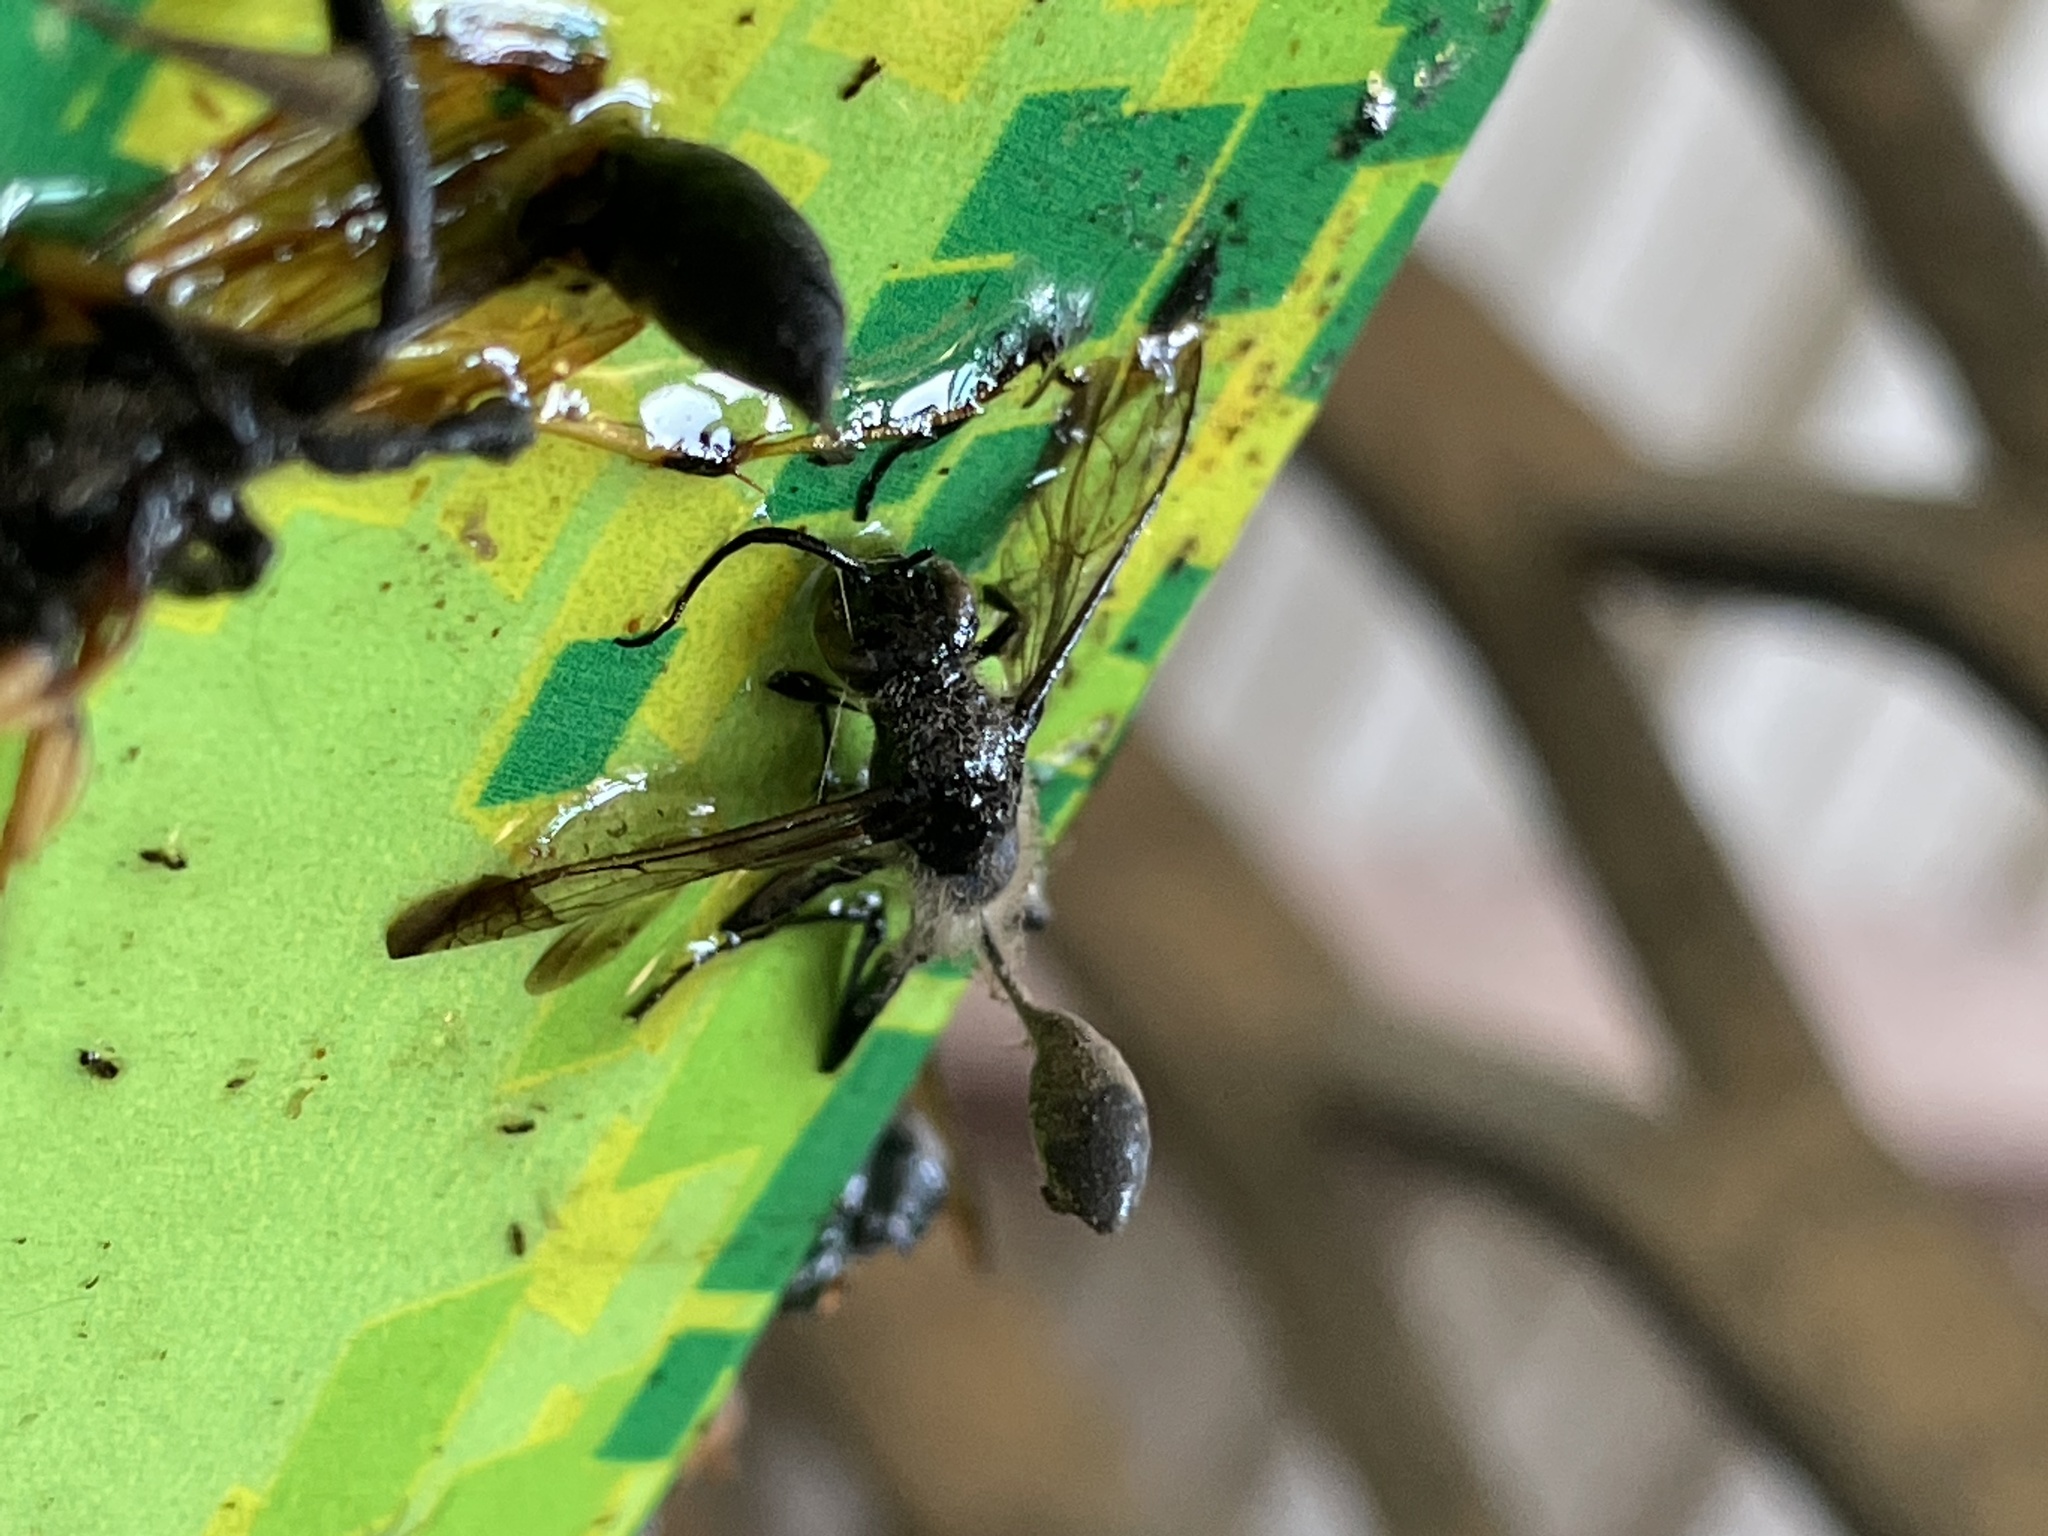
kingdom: Animalia
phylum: Arthropoda
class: Insecta
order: Hymenoptera
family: Sphecidae
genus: Isodontia
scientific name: Isodontia mexicana
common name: Mud dauber
